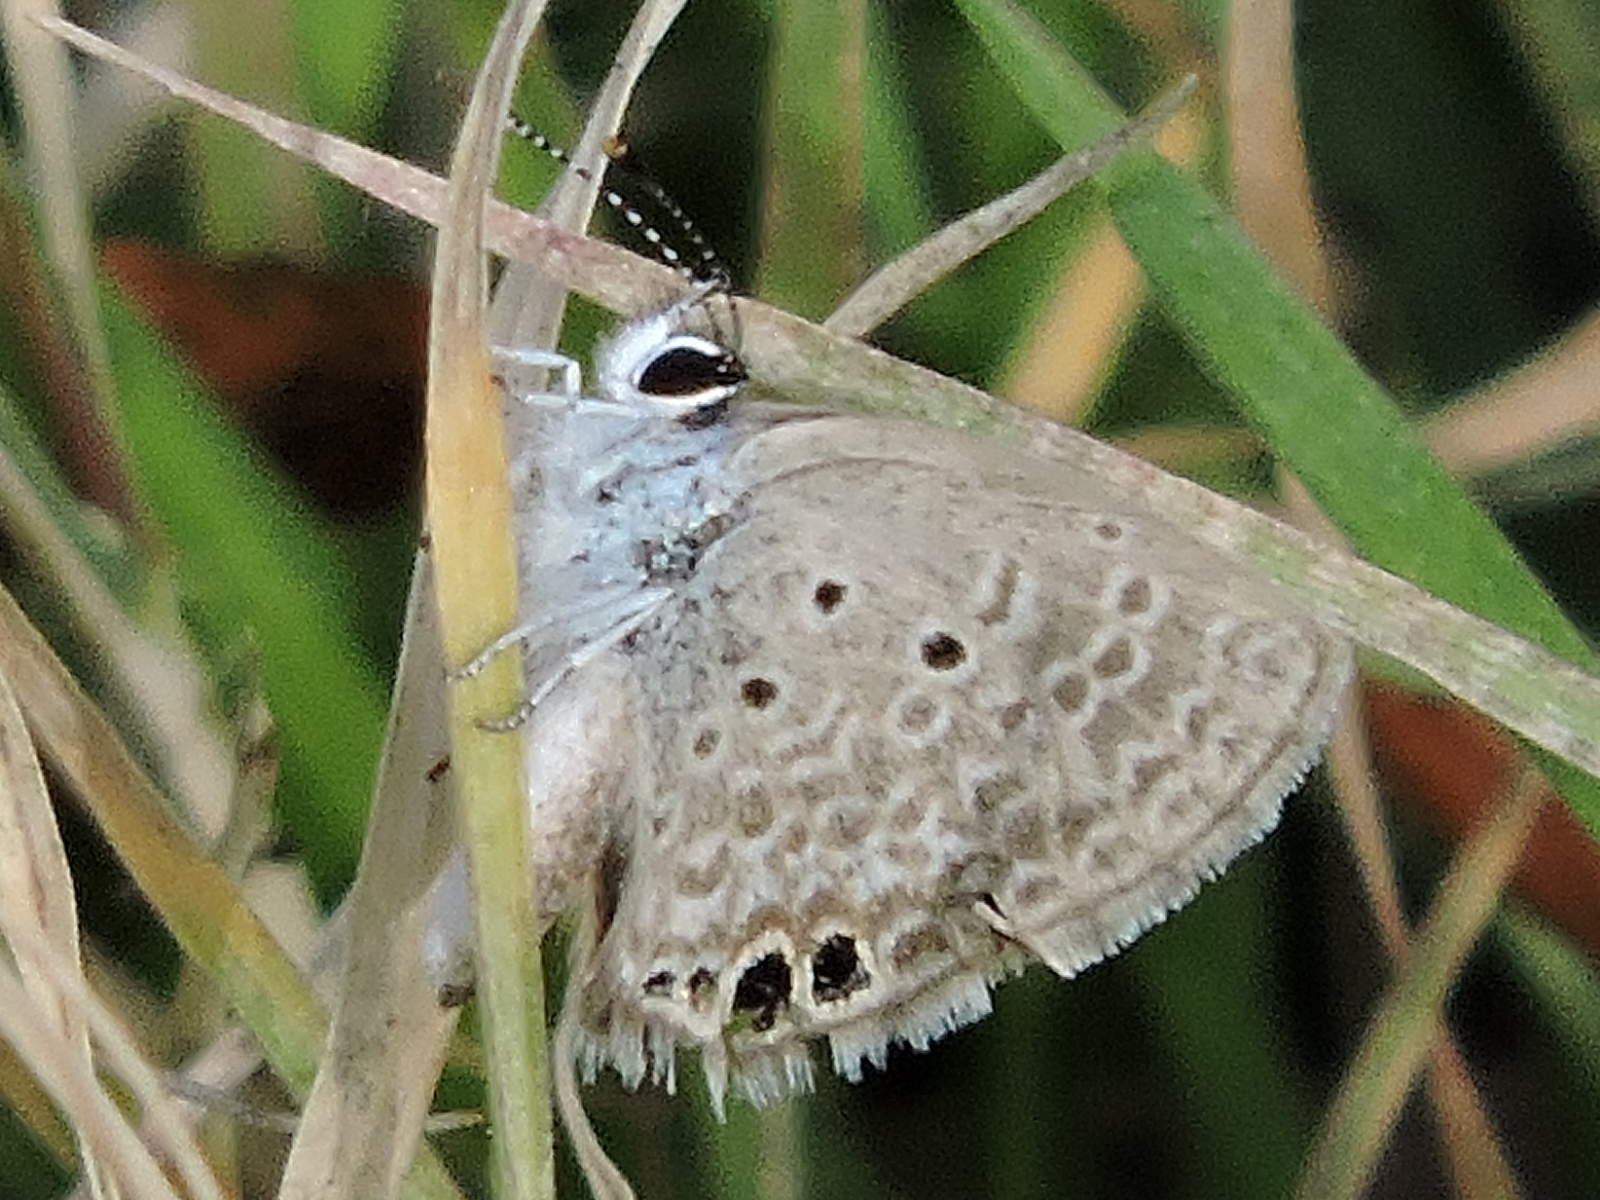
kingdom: Animalia
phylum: Arthropoda
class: Insecta
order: Lepidoptera
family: Lycaenidae
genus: Hemiargus
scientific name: Hemiargus ceraunus
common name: Ceraunus blue
